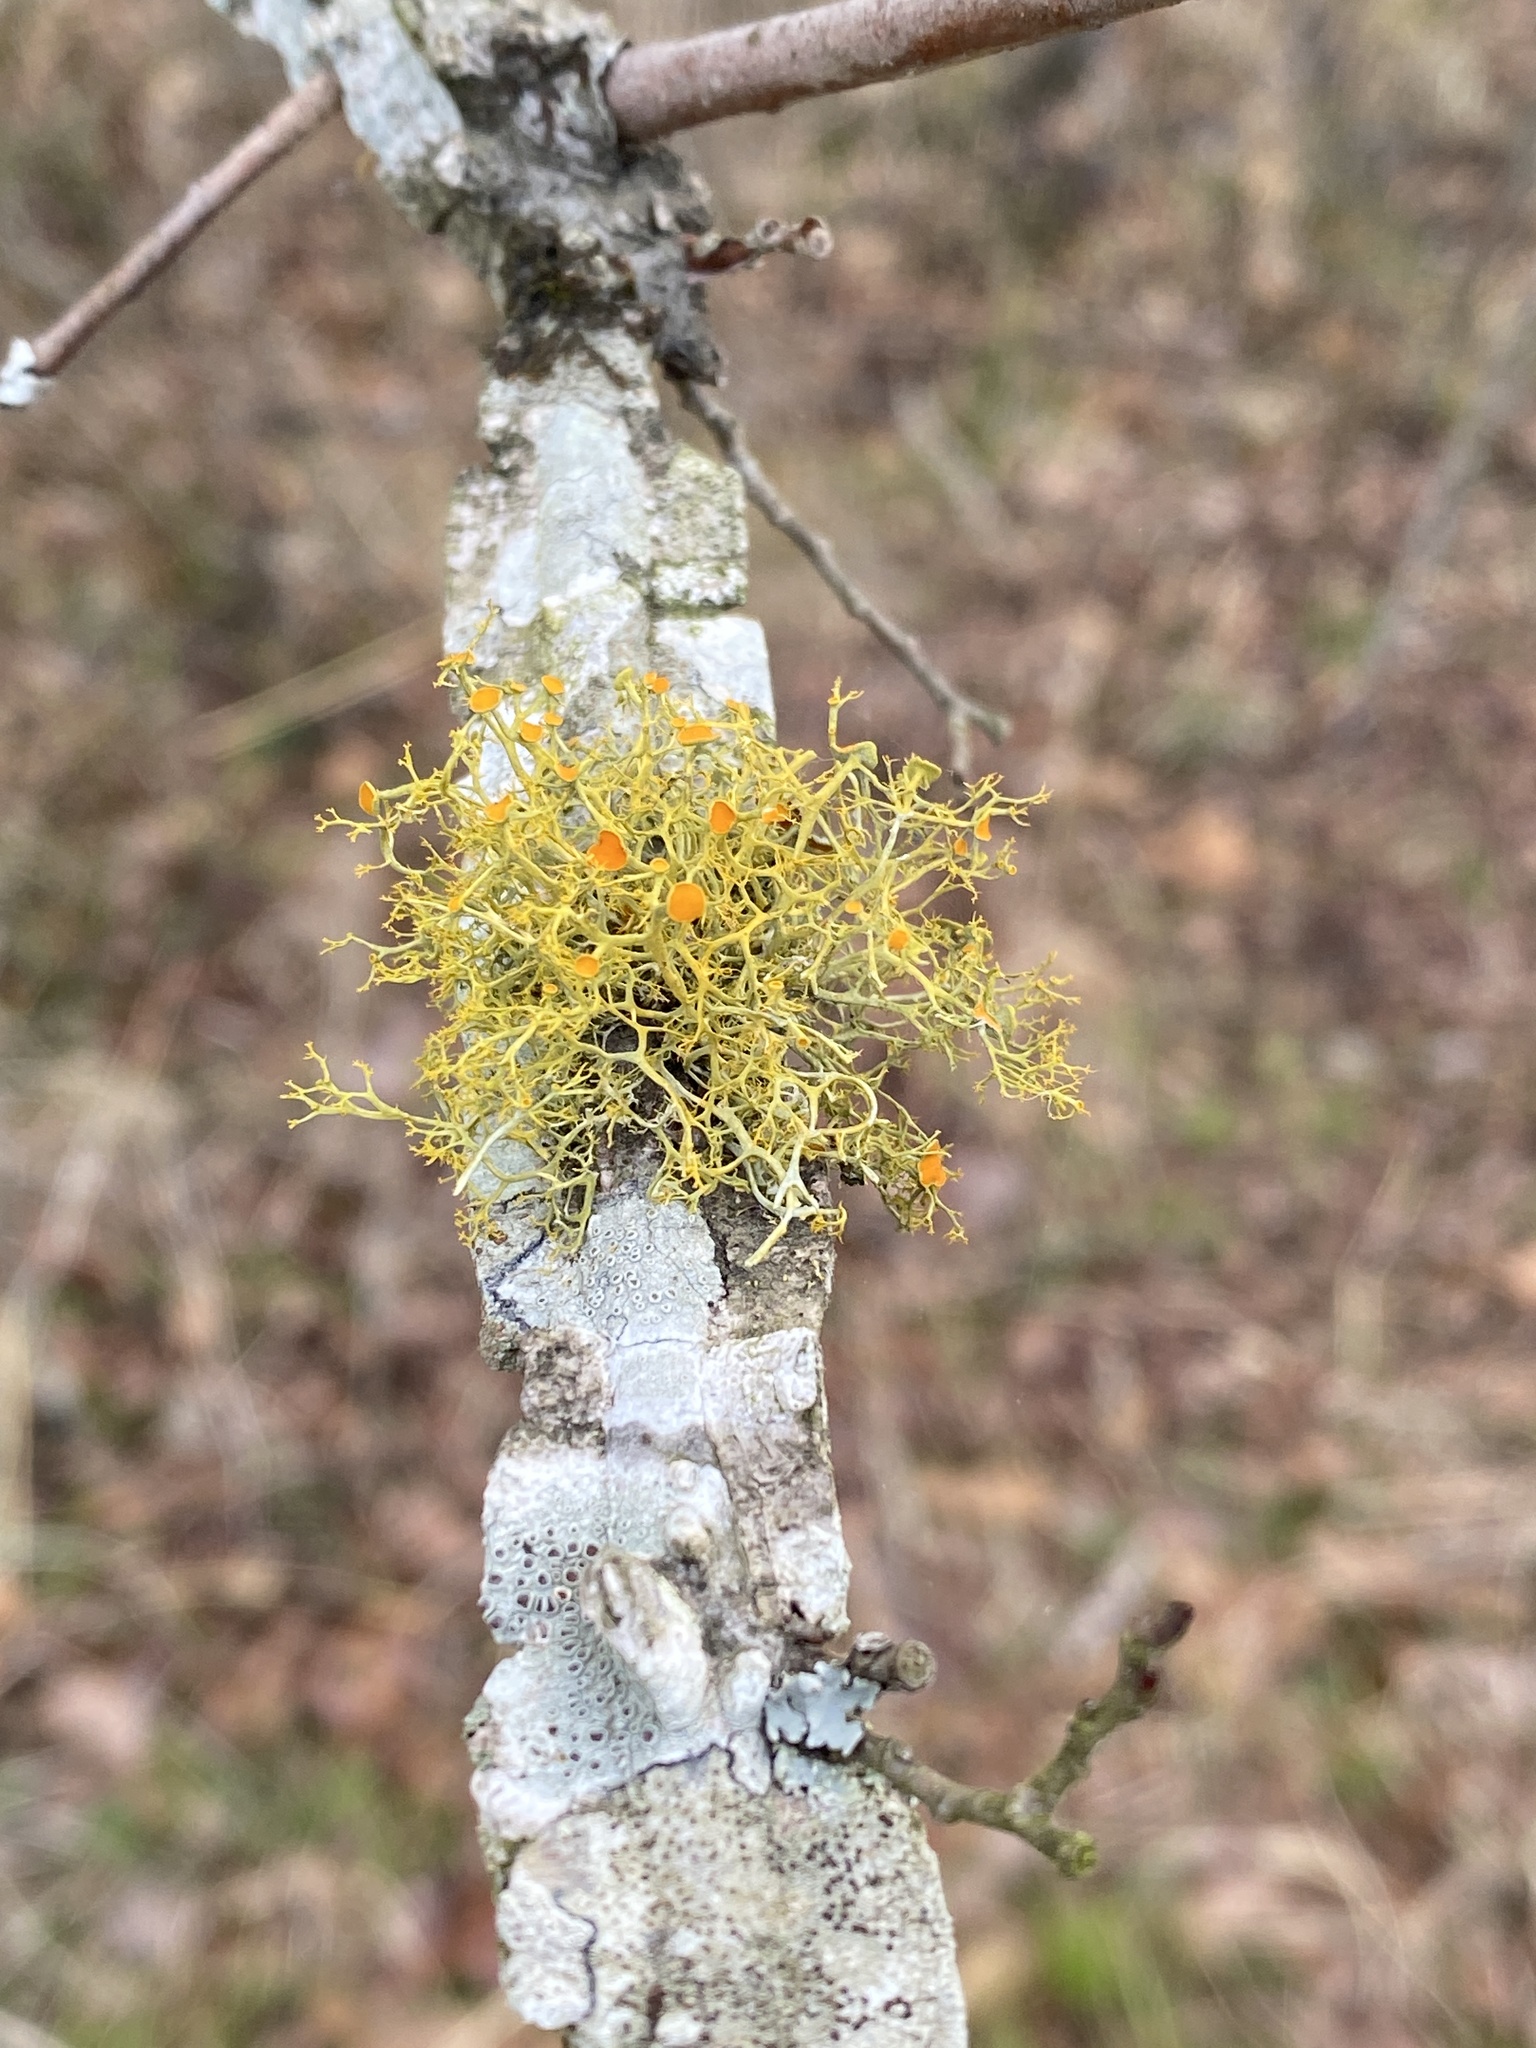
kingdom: Fungi
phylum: Ascomycota
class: Lecanoromycetes
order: Teloschistales
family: Teloschistaceae
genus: Teloschistes
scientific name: Teloschistes exilis
